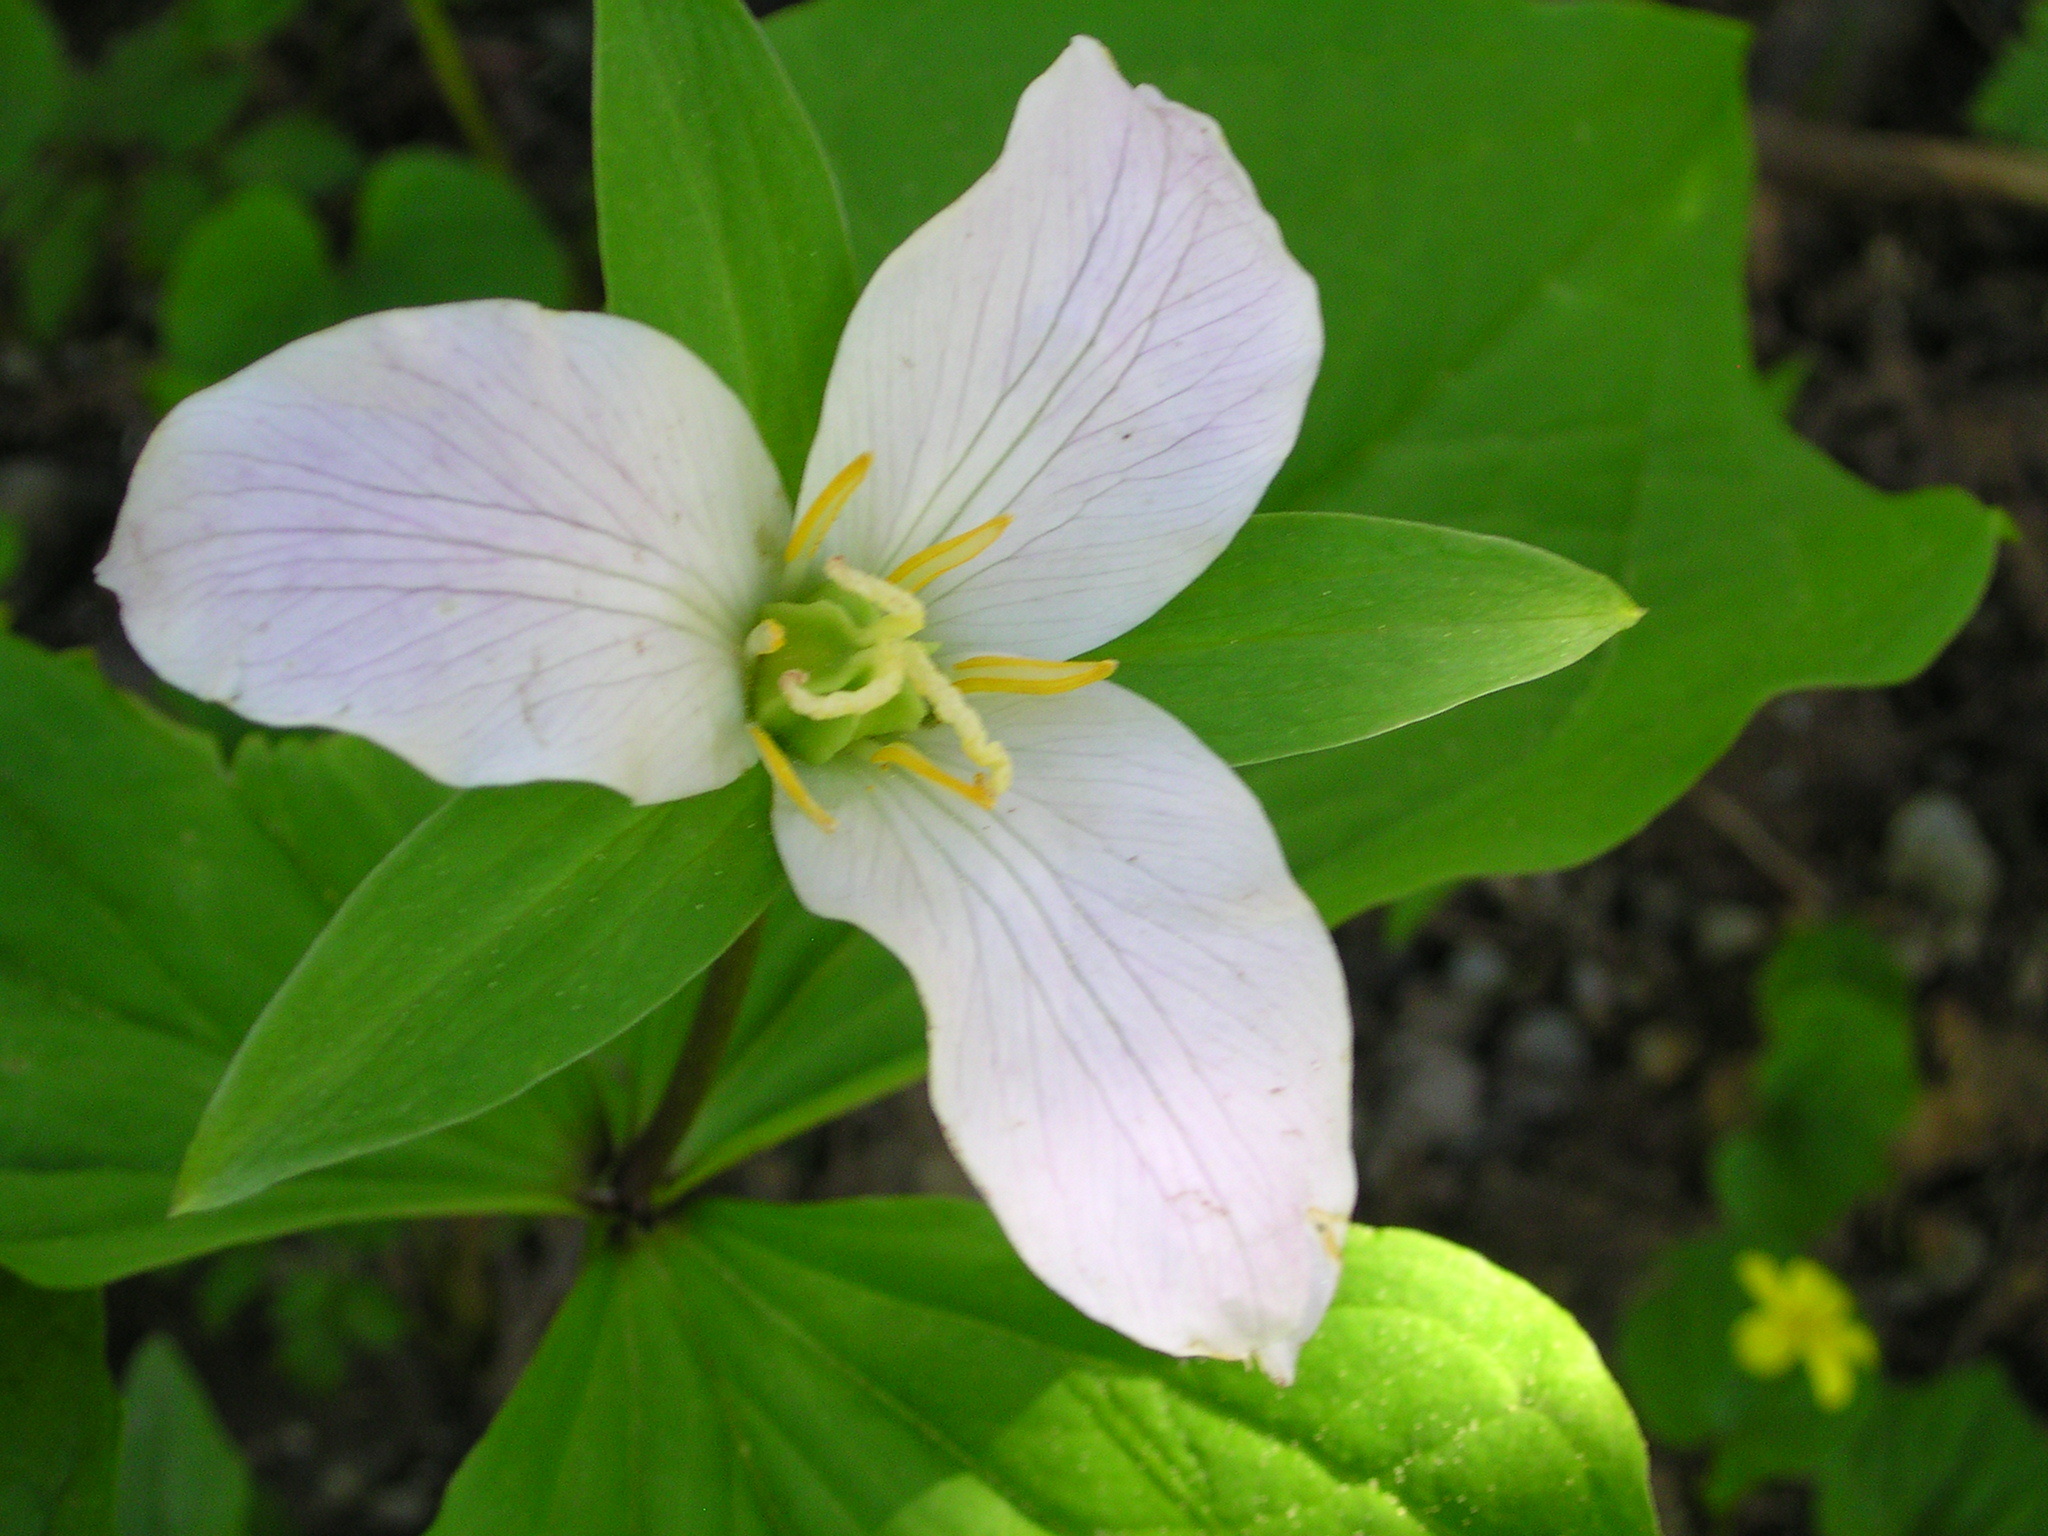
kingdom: Plantae
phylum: Tracheophyta
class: Liliopsida
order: Liliales
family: Melanthiaceae
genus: Trillium
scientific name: Trillium ovatum
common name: Pacific trillium
